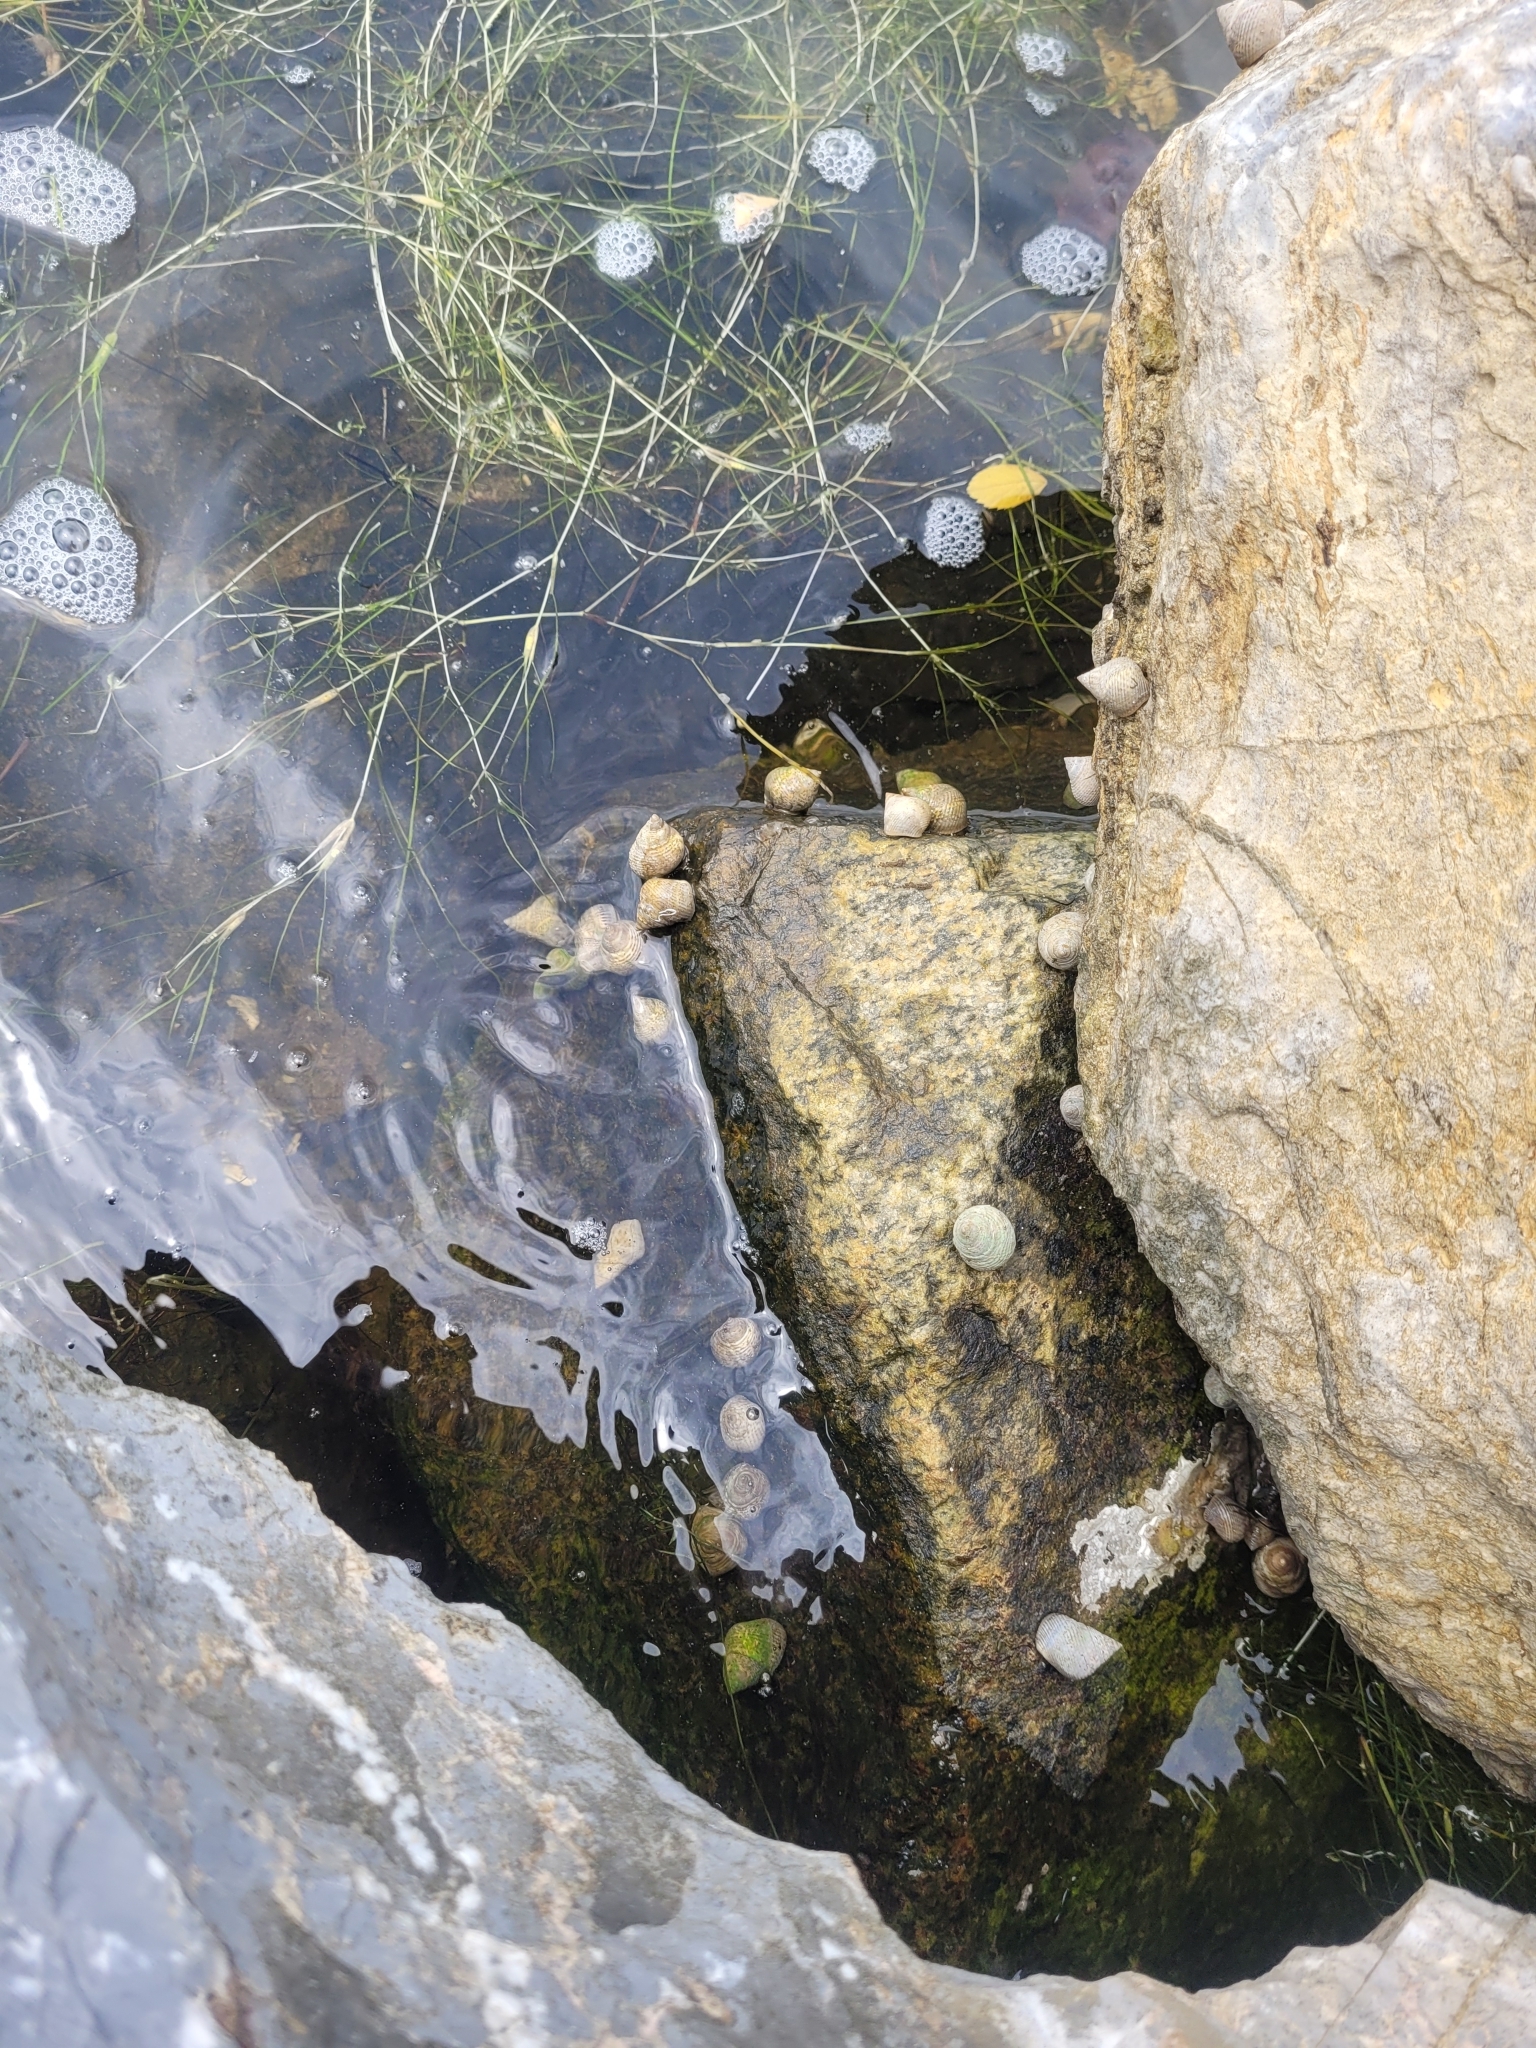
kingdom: Animalia
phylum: Mollusca
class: Gastropoda
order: Littorinimorpha
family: Littorinidae
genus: Littoraria
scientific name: Littoraria irrorata
